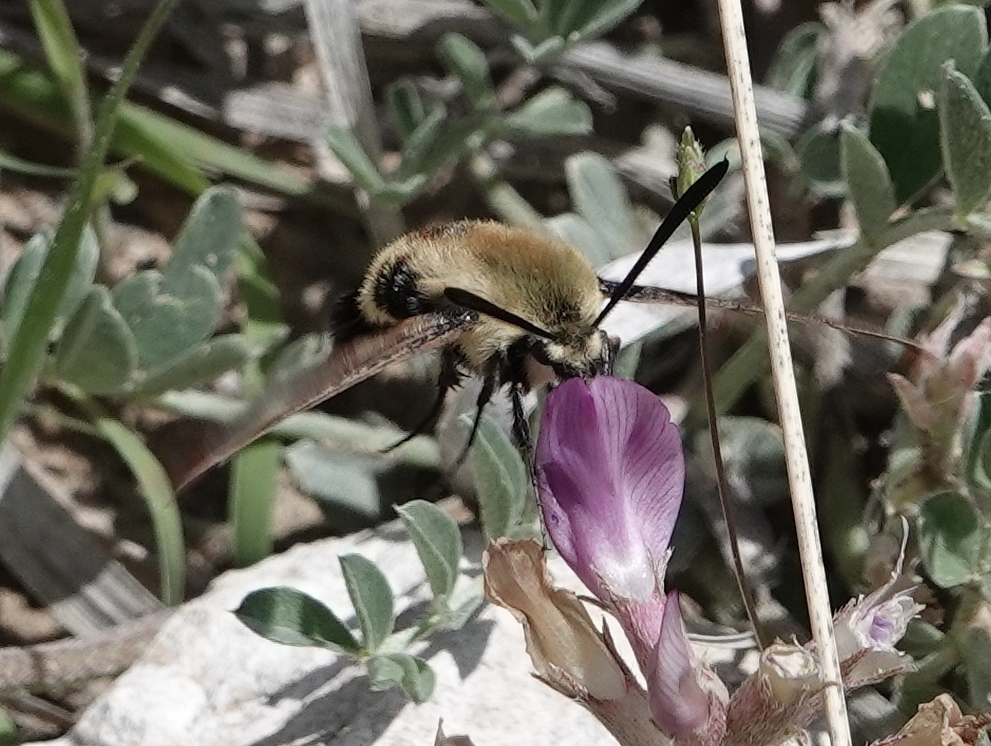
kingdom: Animalia
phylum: Arthropoda
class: Insecta
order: Lepidoptera
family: Sphingidae
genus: Hemaris
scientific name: Hemaris diffinis
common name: Bumblebee moth
